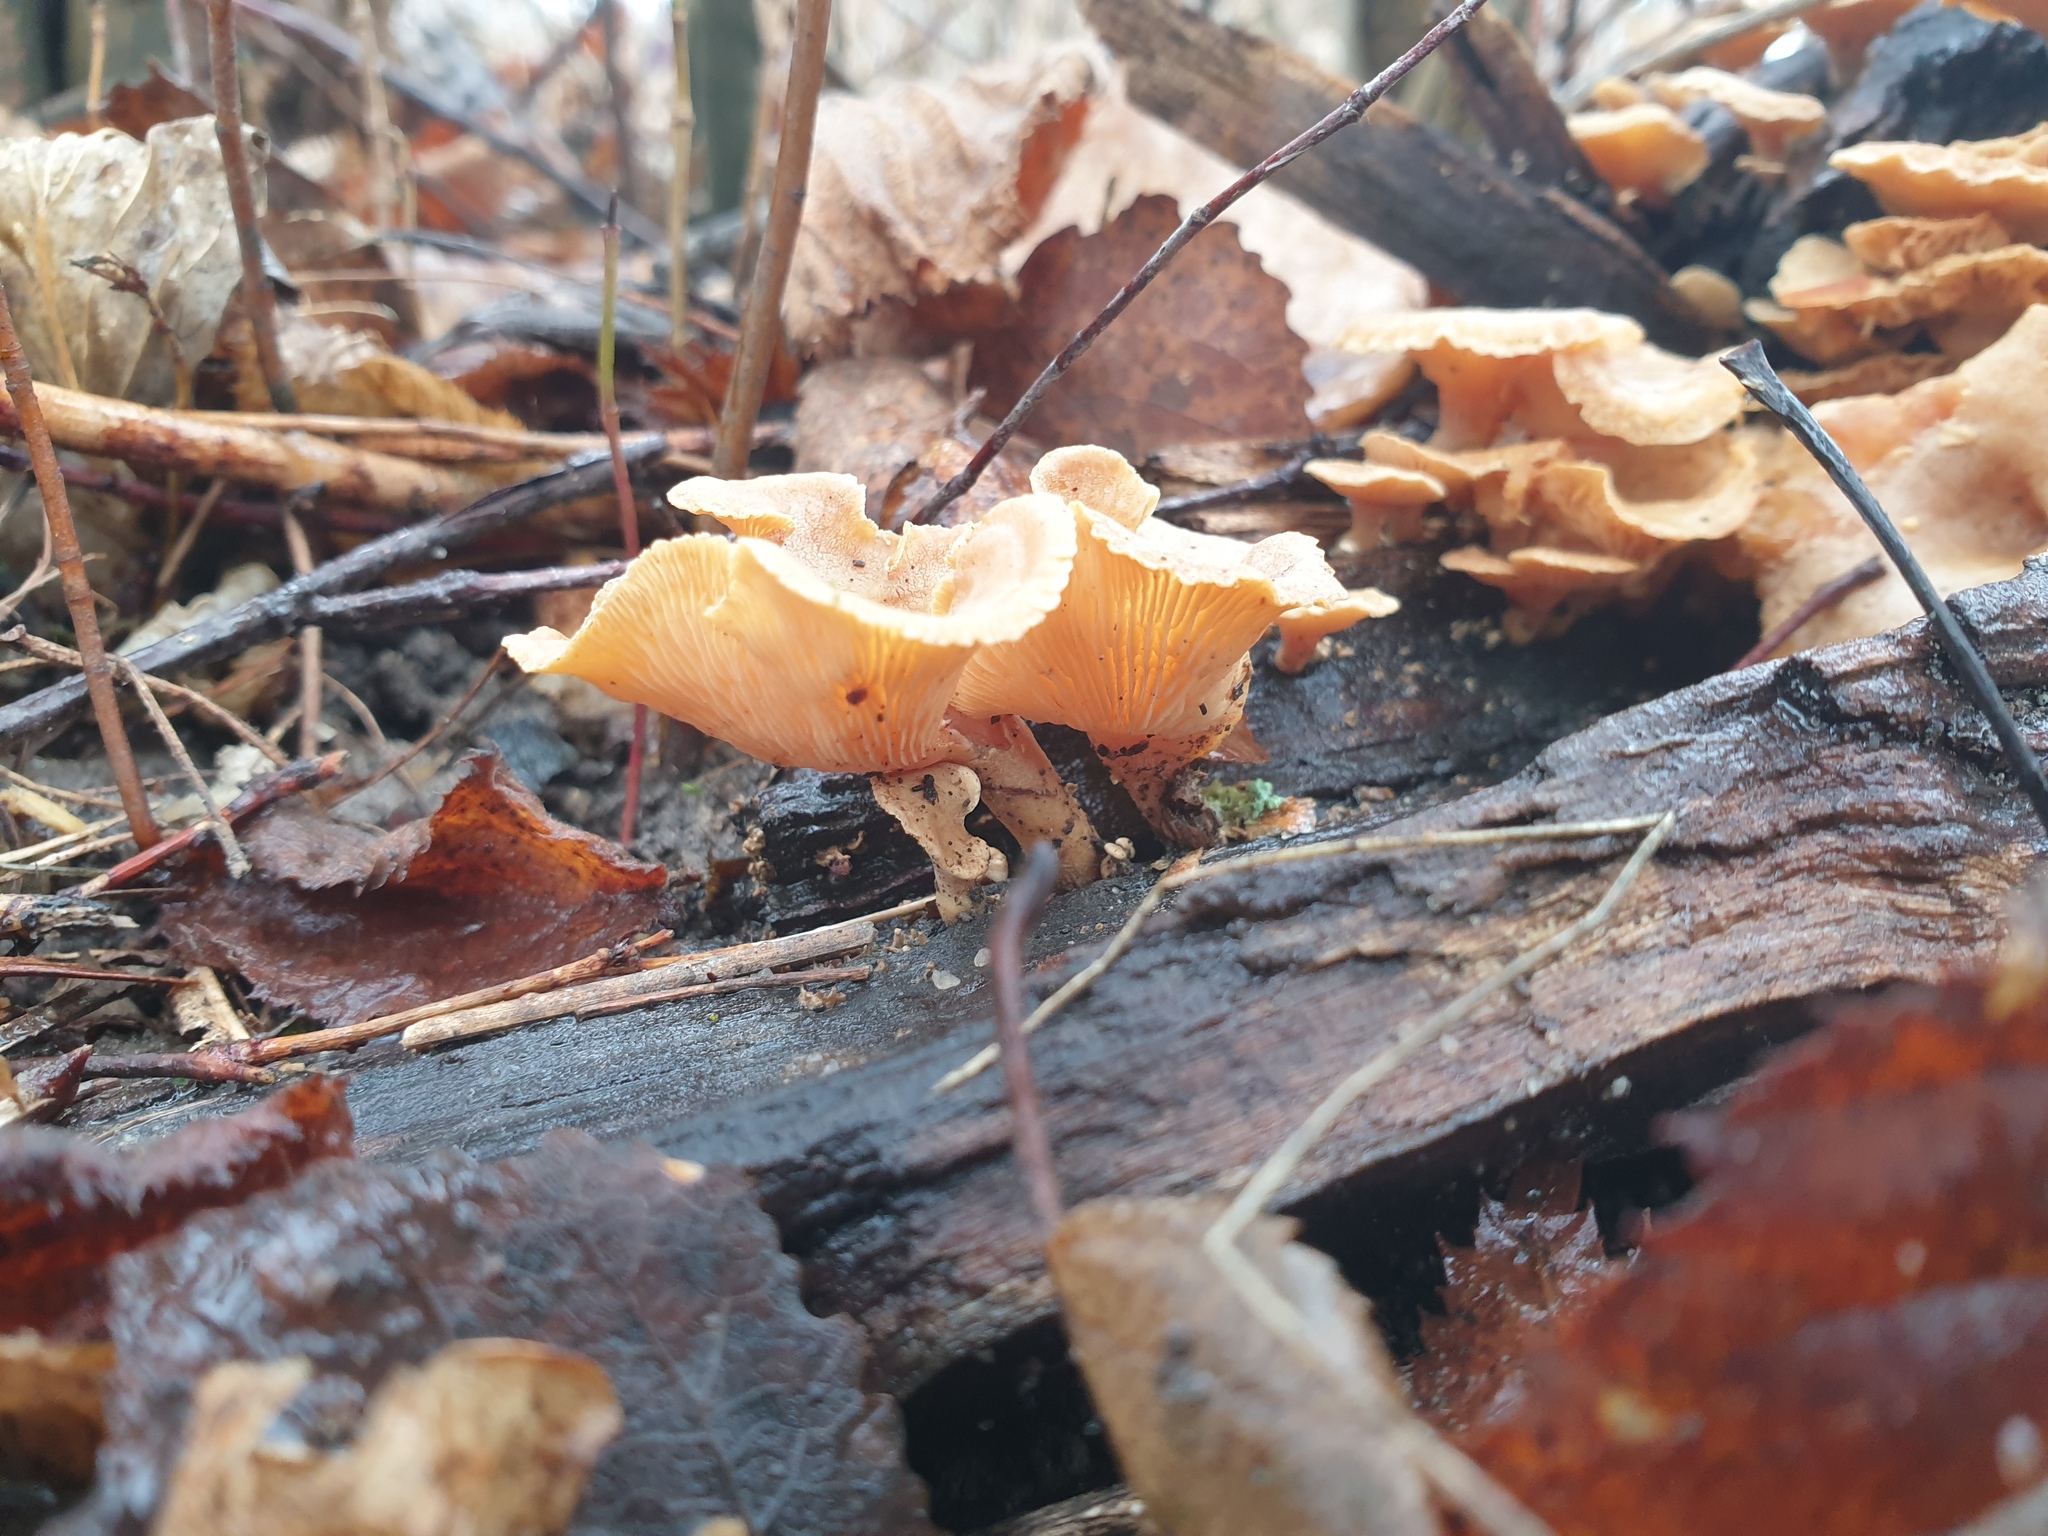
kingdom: Fungi
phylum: Basidiomycota
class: Agaricomycetes
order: Agaricales
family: Mycenaceae
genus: Panellus
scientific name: Panellus stipticus
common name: Bitter oysterling
